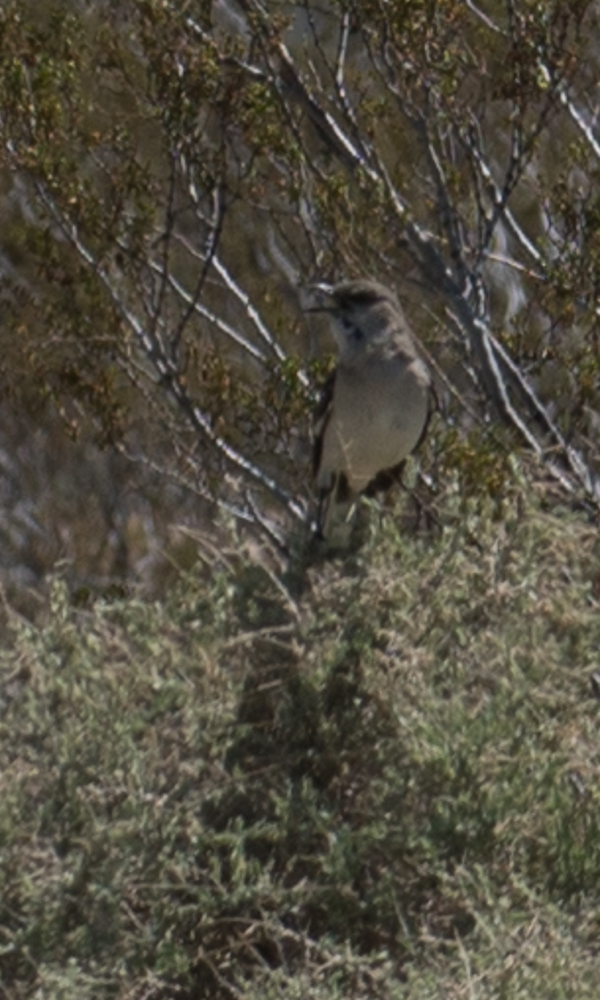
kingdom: Animalia
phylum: Chordata
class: Aves
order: Passeriformes
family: Mimidae
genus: Mimus
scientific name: Mimus polyglottos
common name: Northern mockingbird
